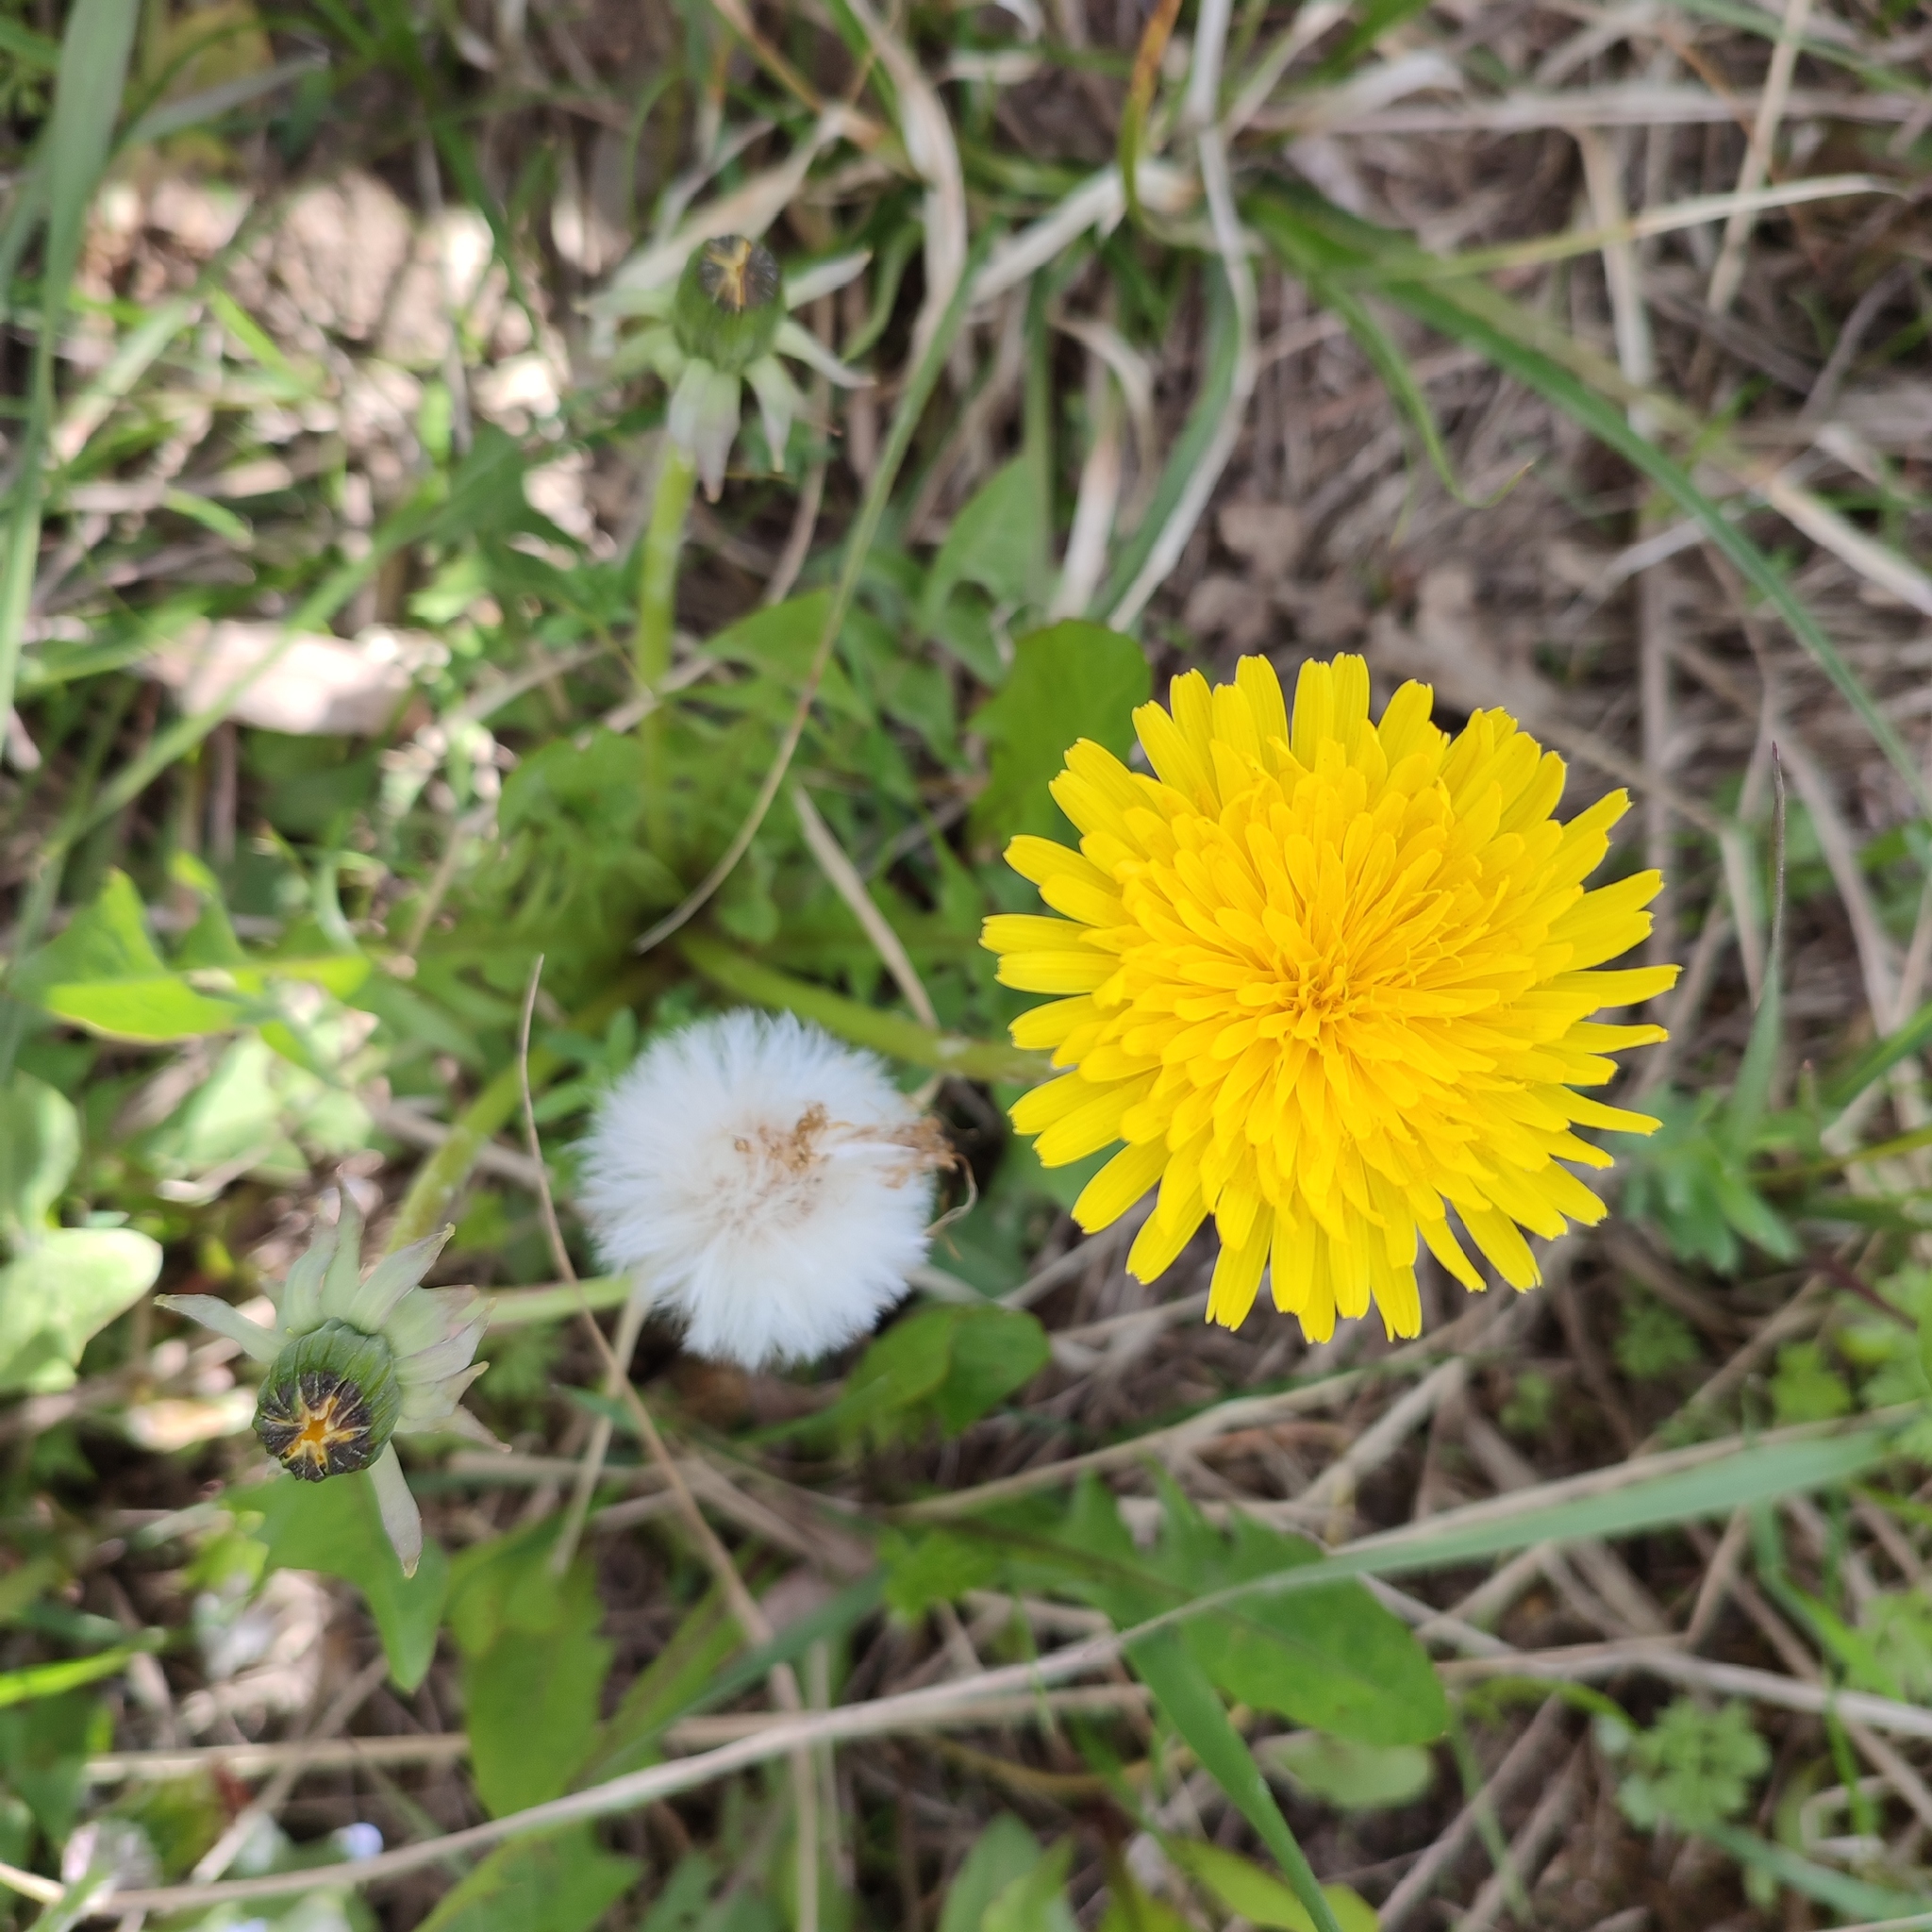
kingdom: Plantae
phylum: Tracheophyta
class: Magnoliopsida
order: Asterales
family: Asteraceae
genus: Taraxacum
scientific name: Taraxacum officinale
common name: Common dandelion
